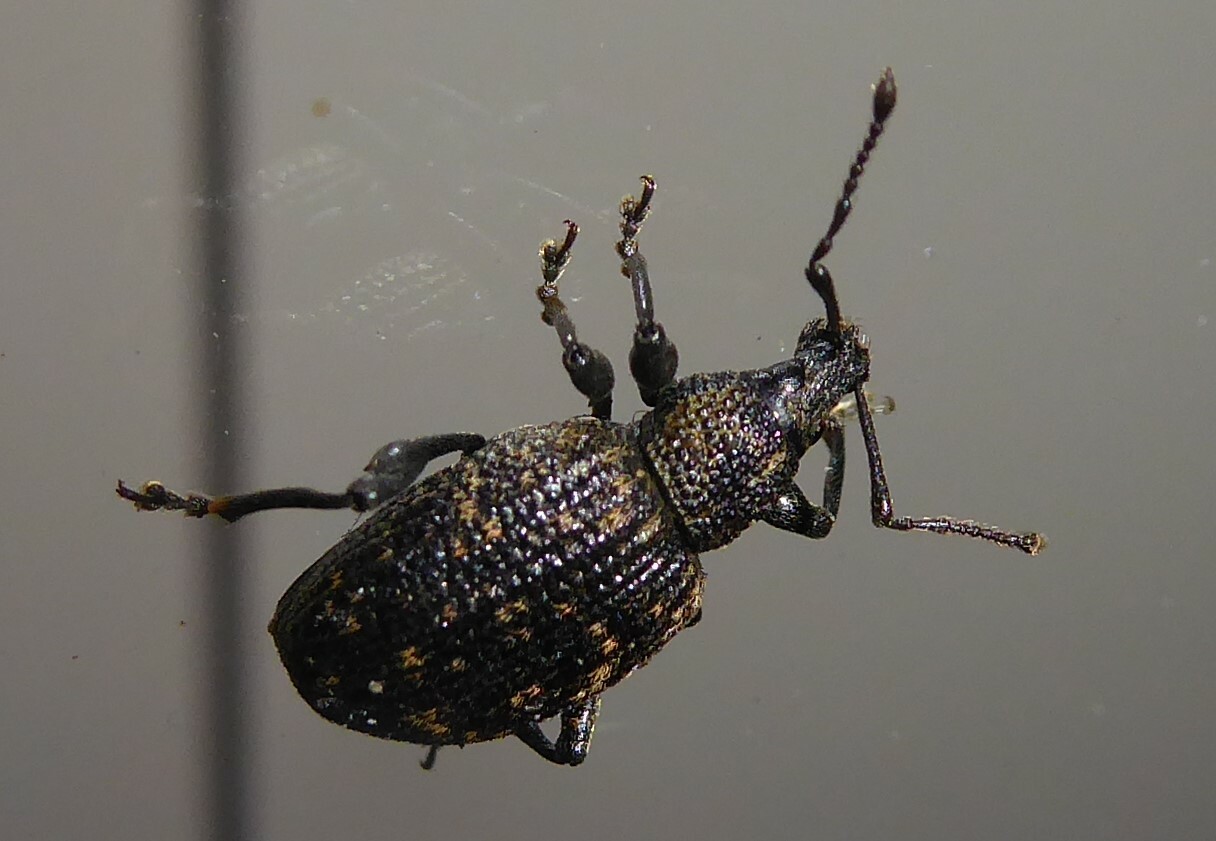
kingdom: Animalia
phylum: Arthropoda
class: Insecta
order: Coleoptera
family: Curculionidae
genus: Otiorhynchus
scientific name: Otiorhynchus sulcatus
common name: Black vine weevil
